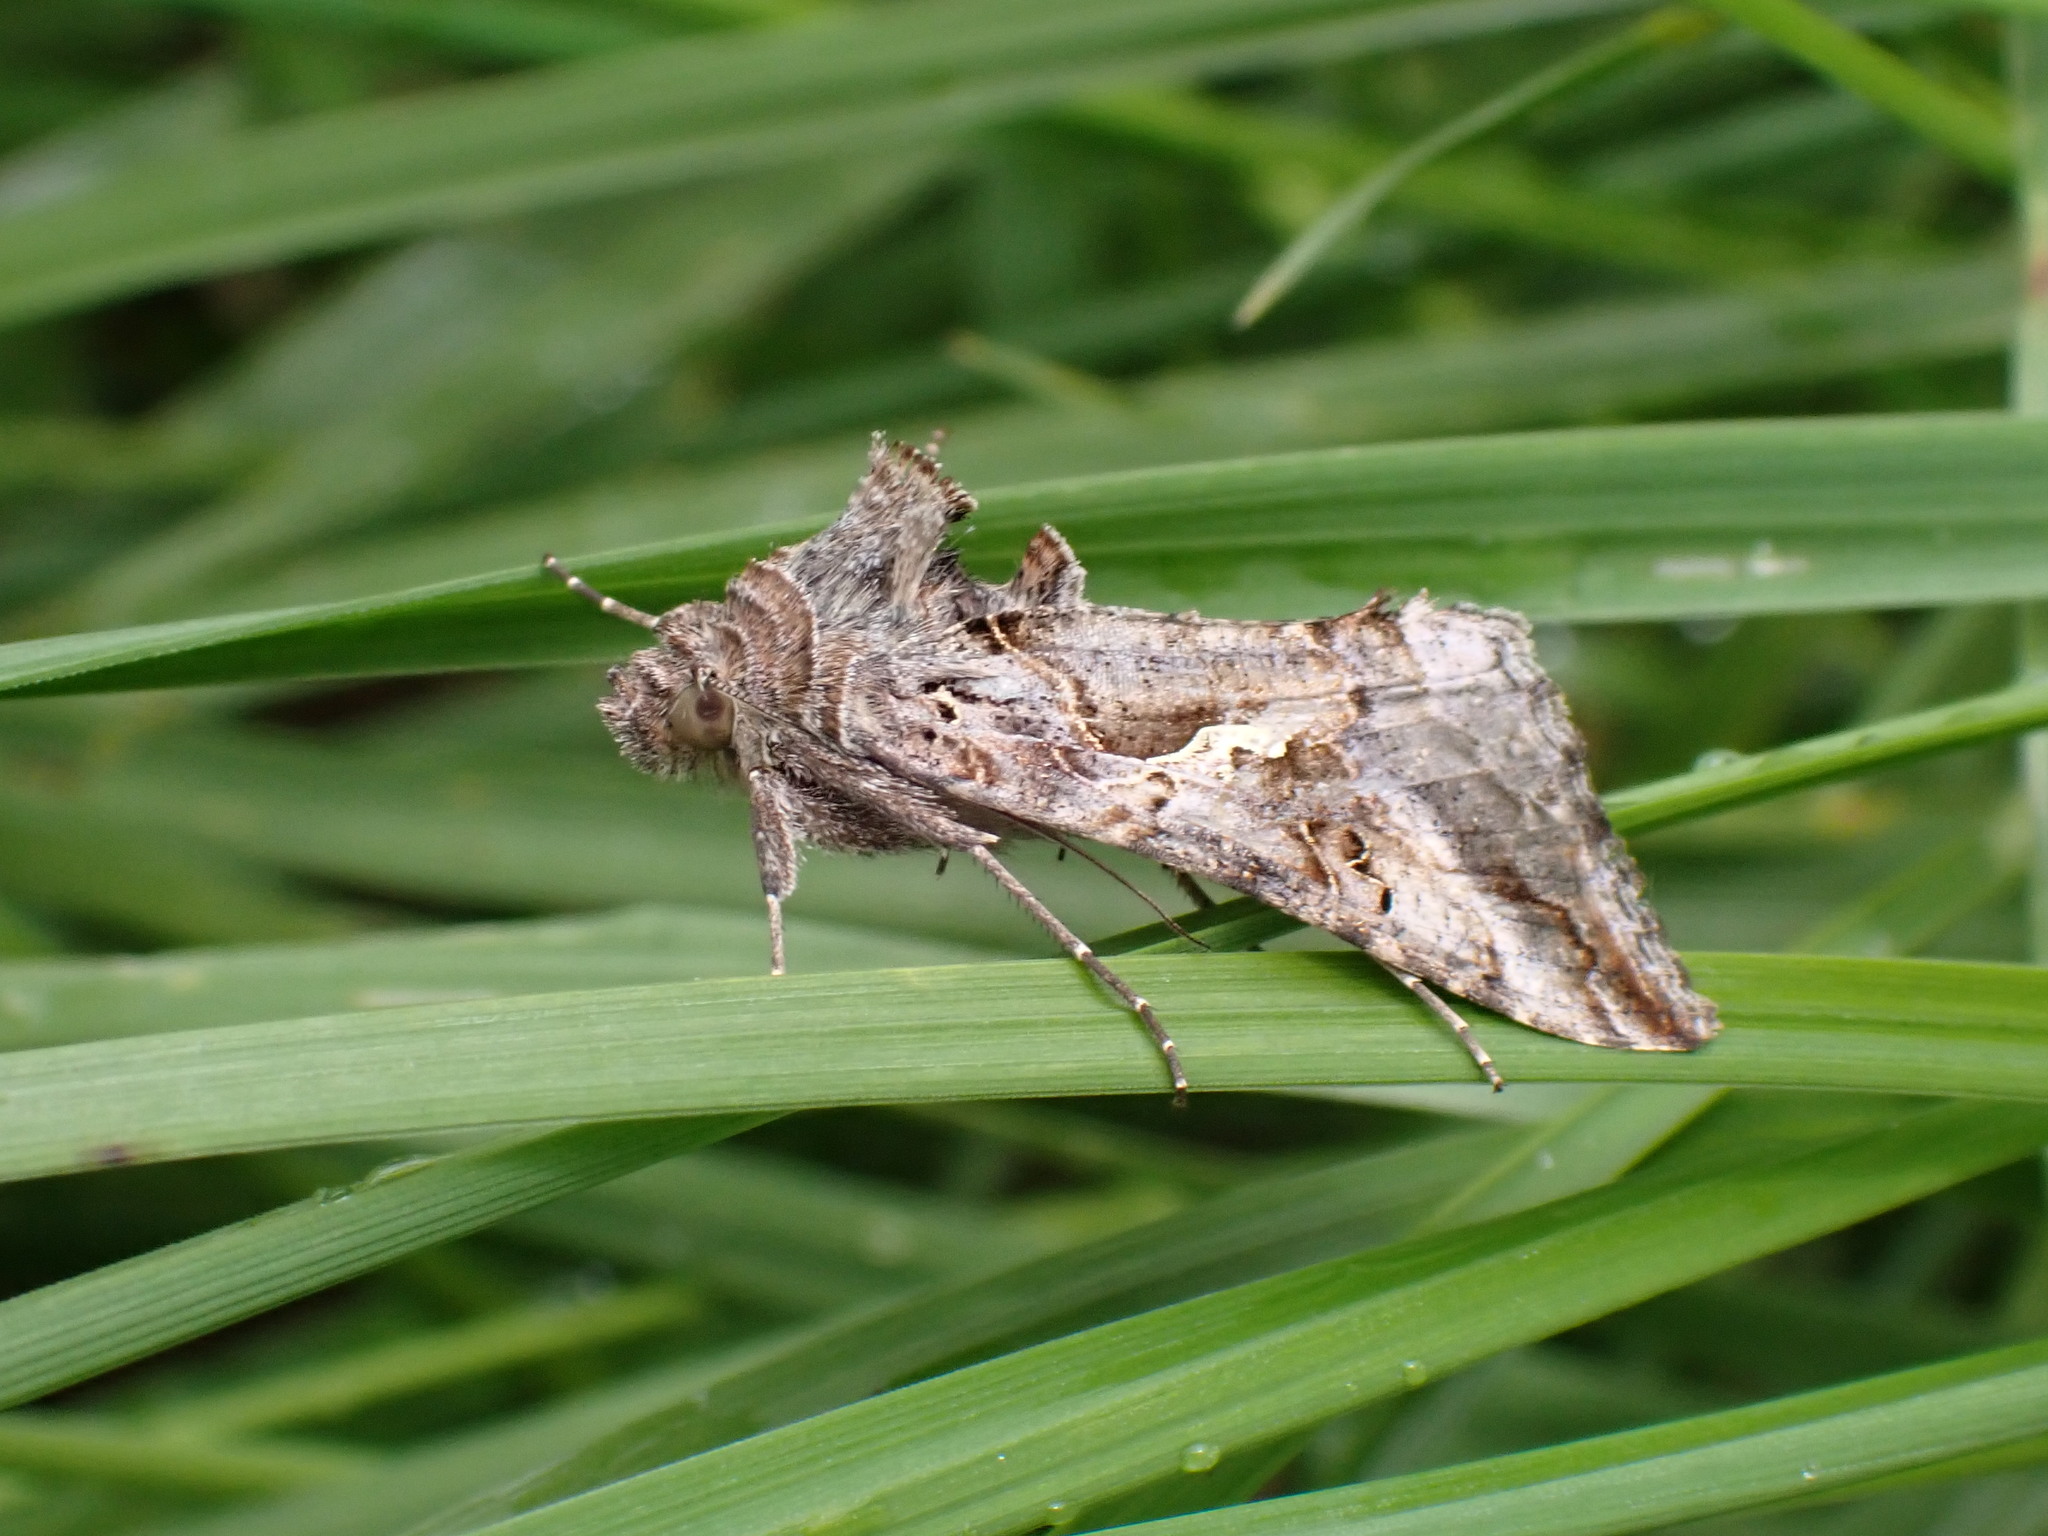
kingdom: Animalia
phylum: Arthropoda
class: Insecta
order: Lepidoptera
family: Noctuidae
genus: Autographa
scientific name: Autographa gamma
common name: Silver y
